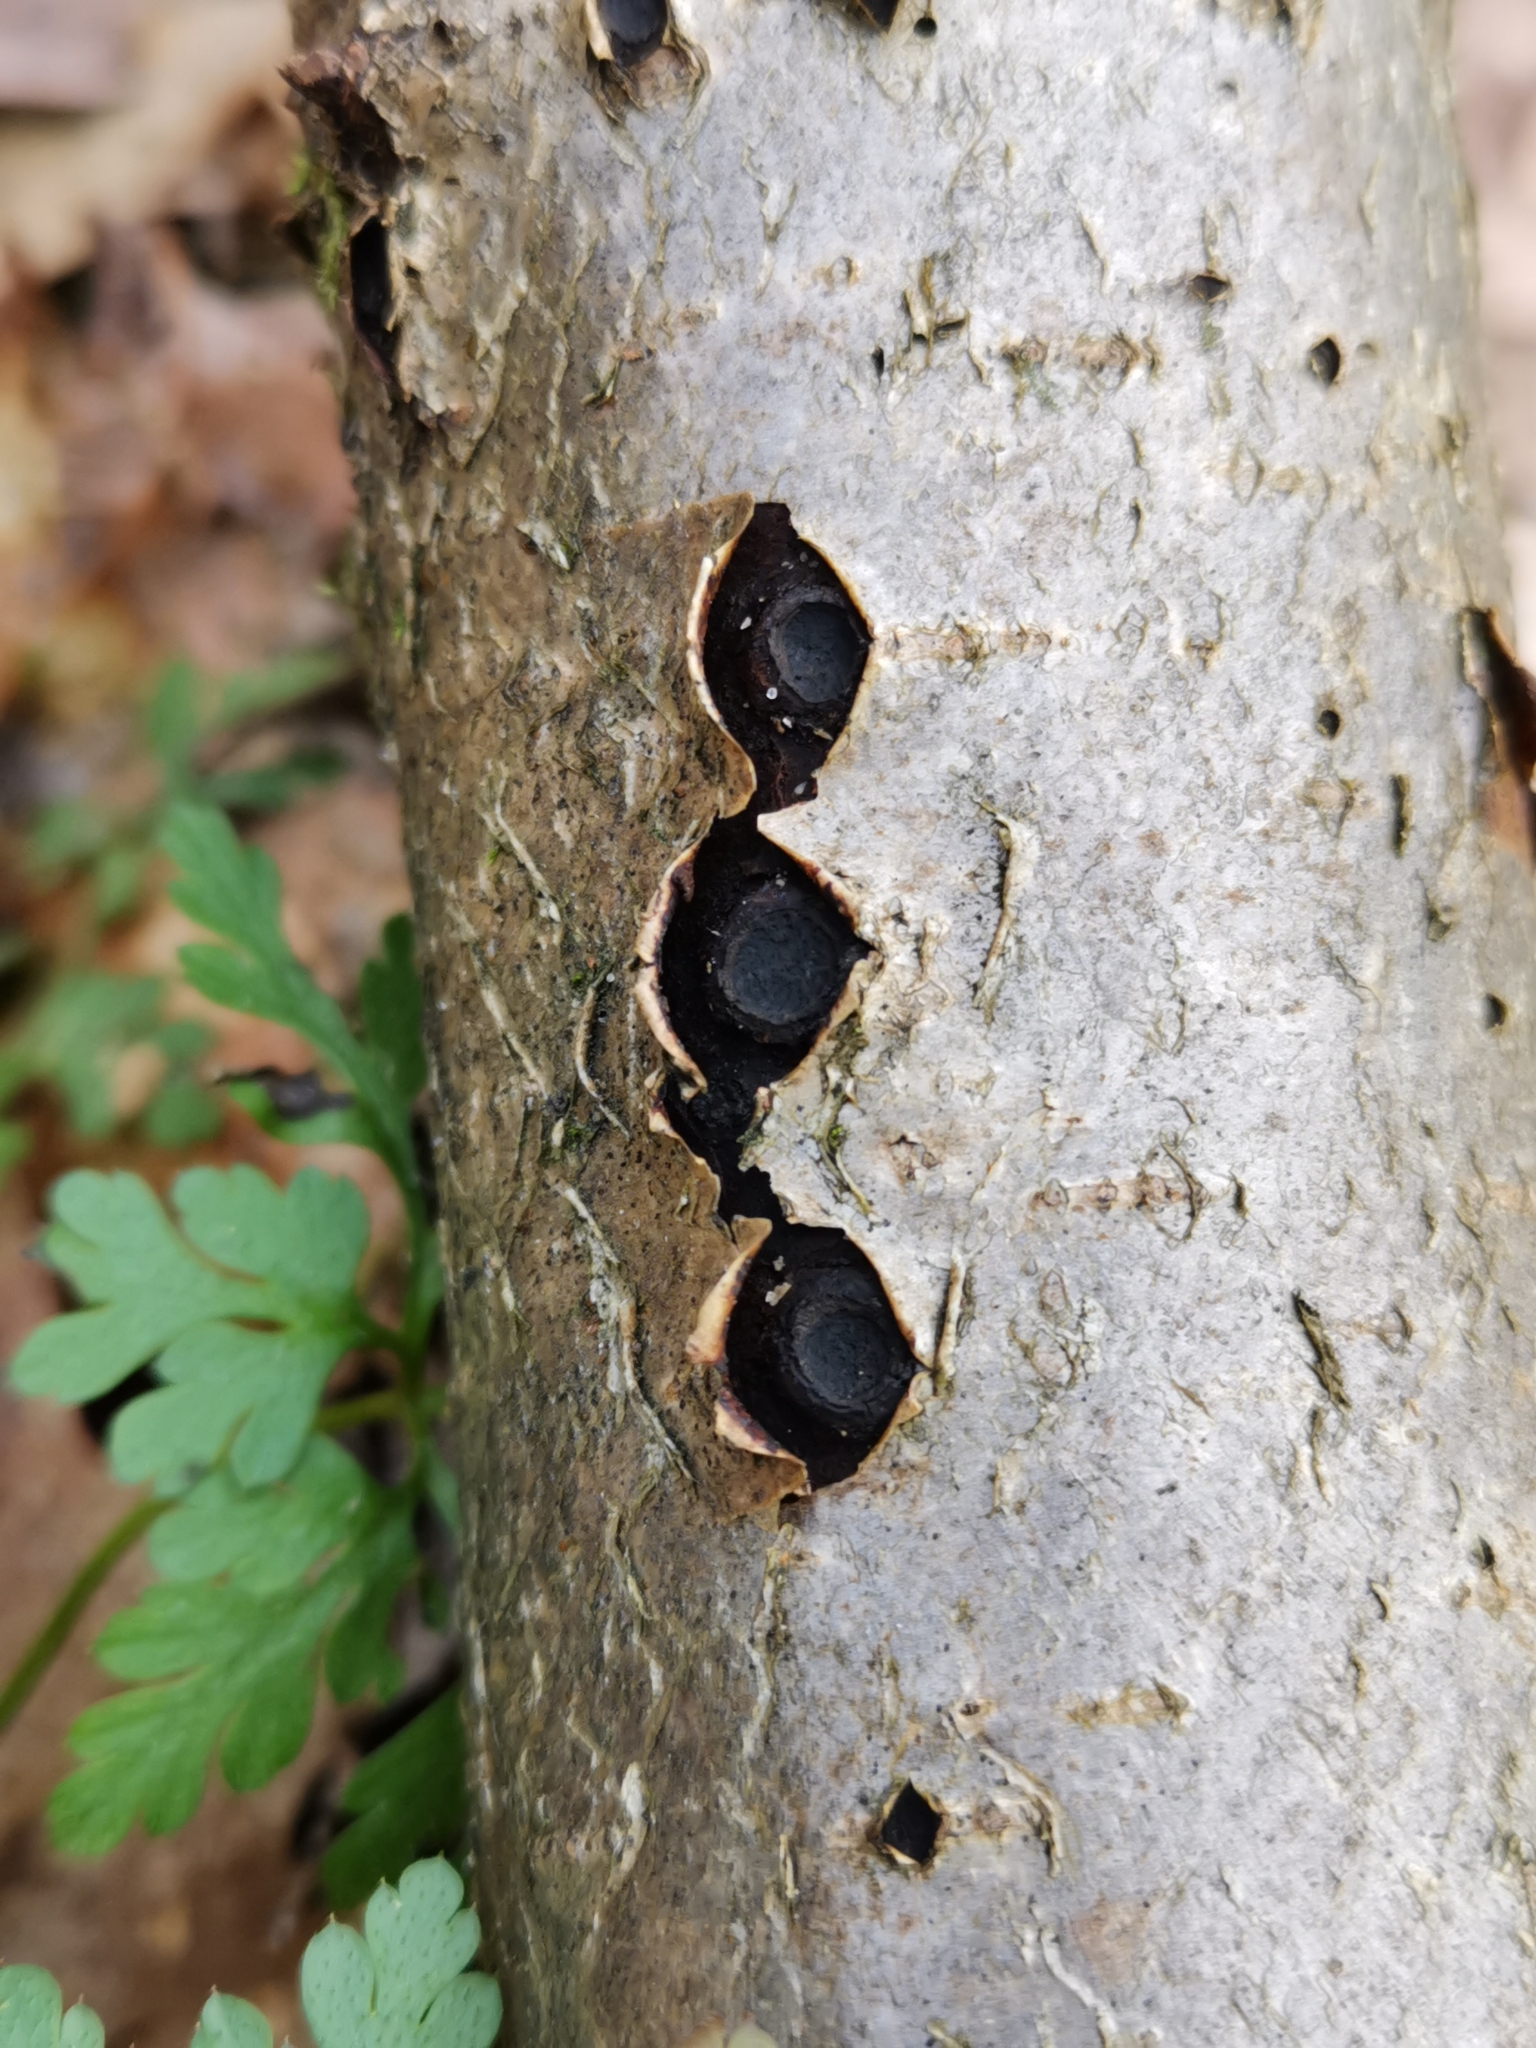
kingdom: Fungi
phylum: Ascomycota
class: Sordariomycetes
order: Xylariales
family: Graphostromataceae
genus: Biscogniauxia
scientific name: Biscogniauxia marginata
